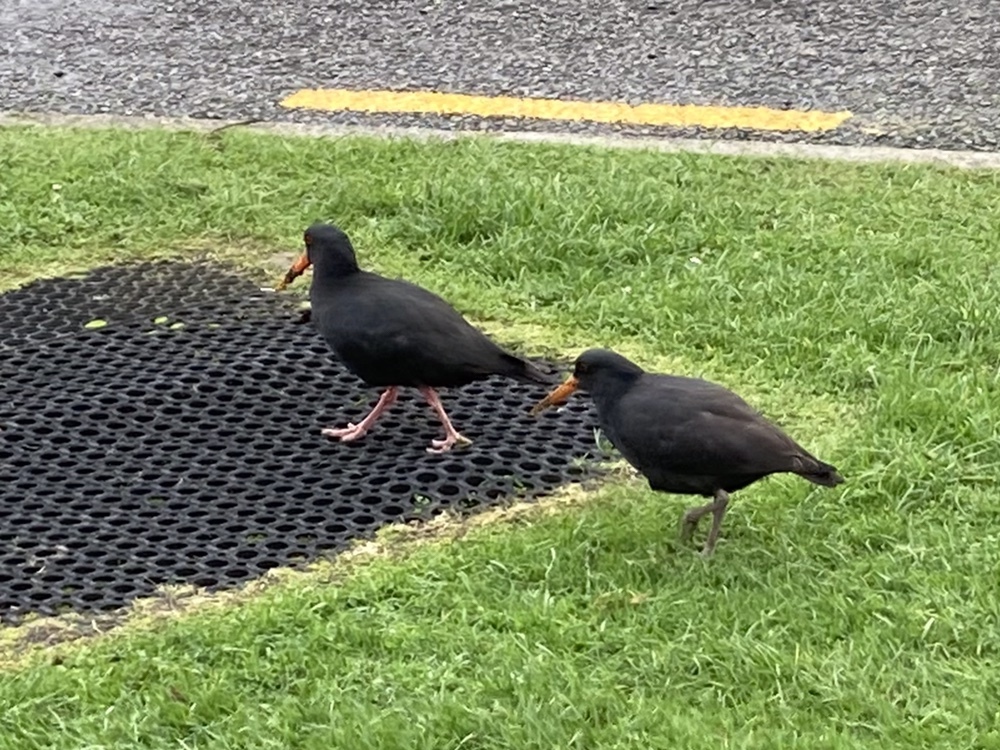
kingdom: Animalia
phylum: Chordata
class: Aves
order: Charadriiformes
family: Haematopodidae
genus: Haematopus
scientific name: Haematopus unicolor
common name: Variable oystercatcher
